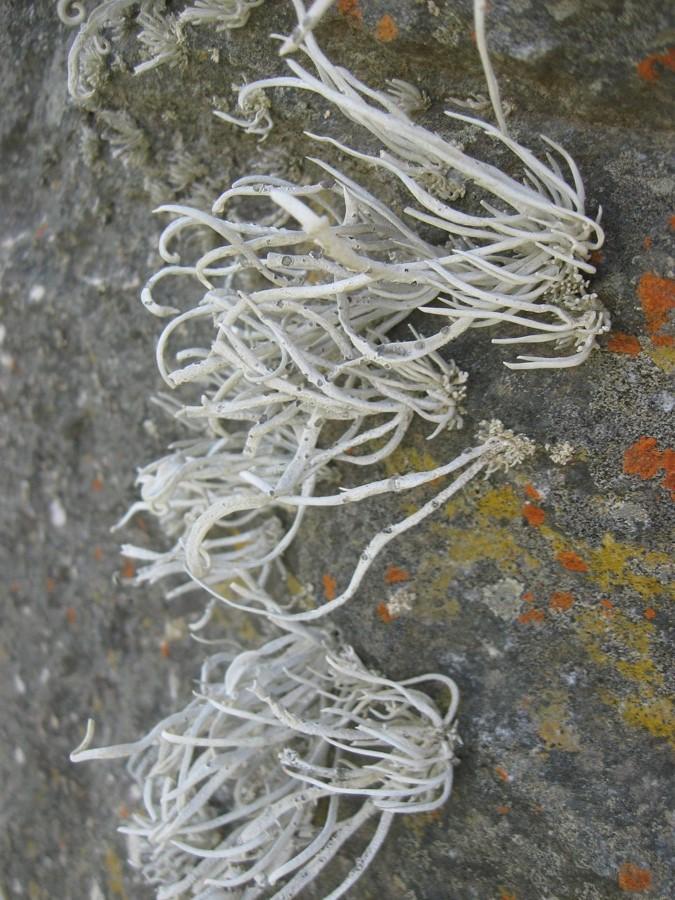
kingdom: Fungi
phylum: Ascomycota
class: Arthoniomycetes
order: Arthoniales
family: Roccellaceae
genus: Roccellina
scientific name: Roccellina hypomecha
